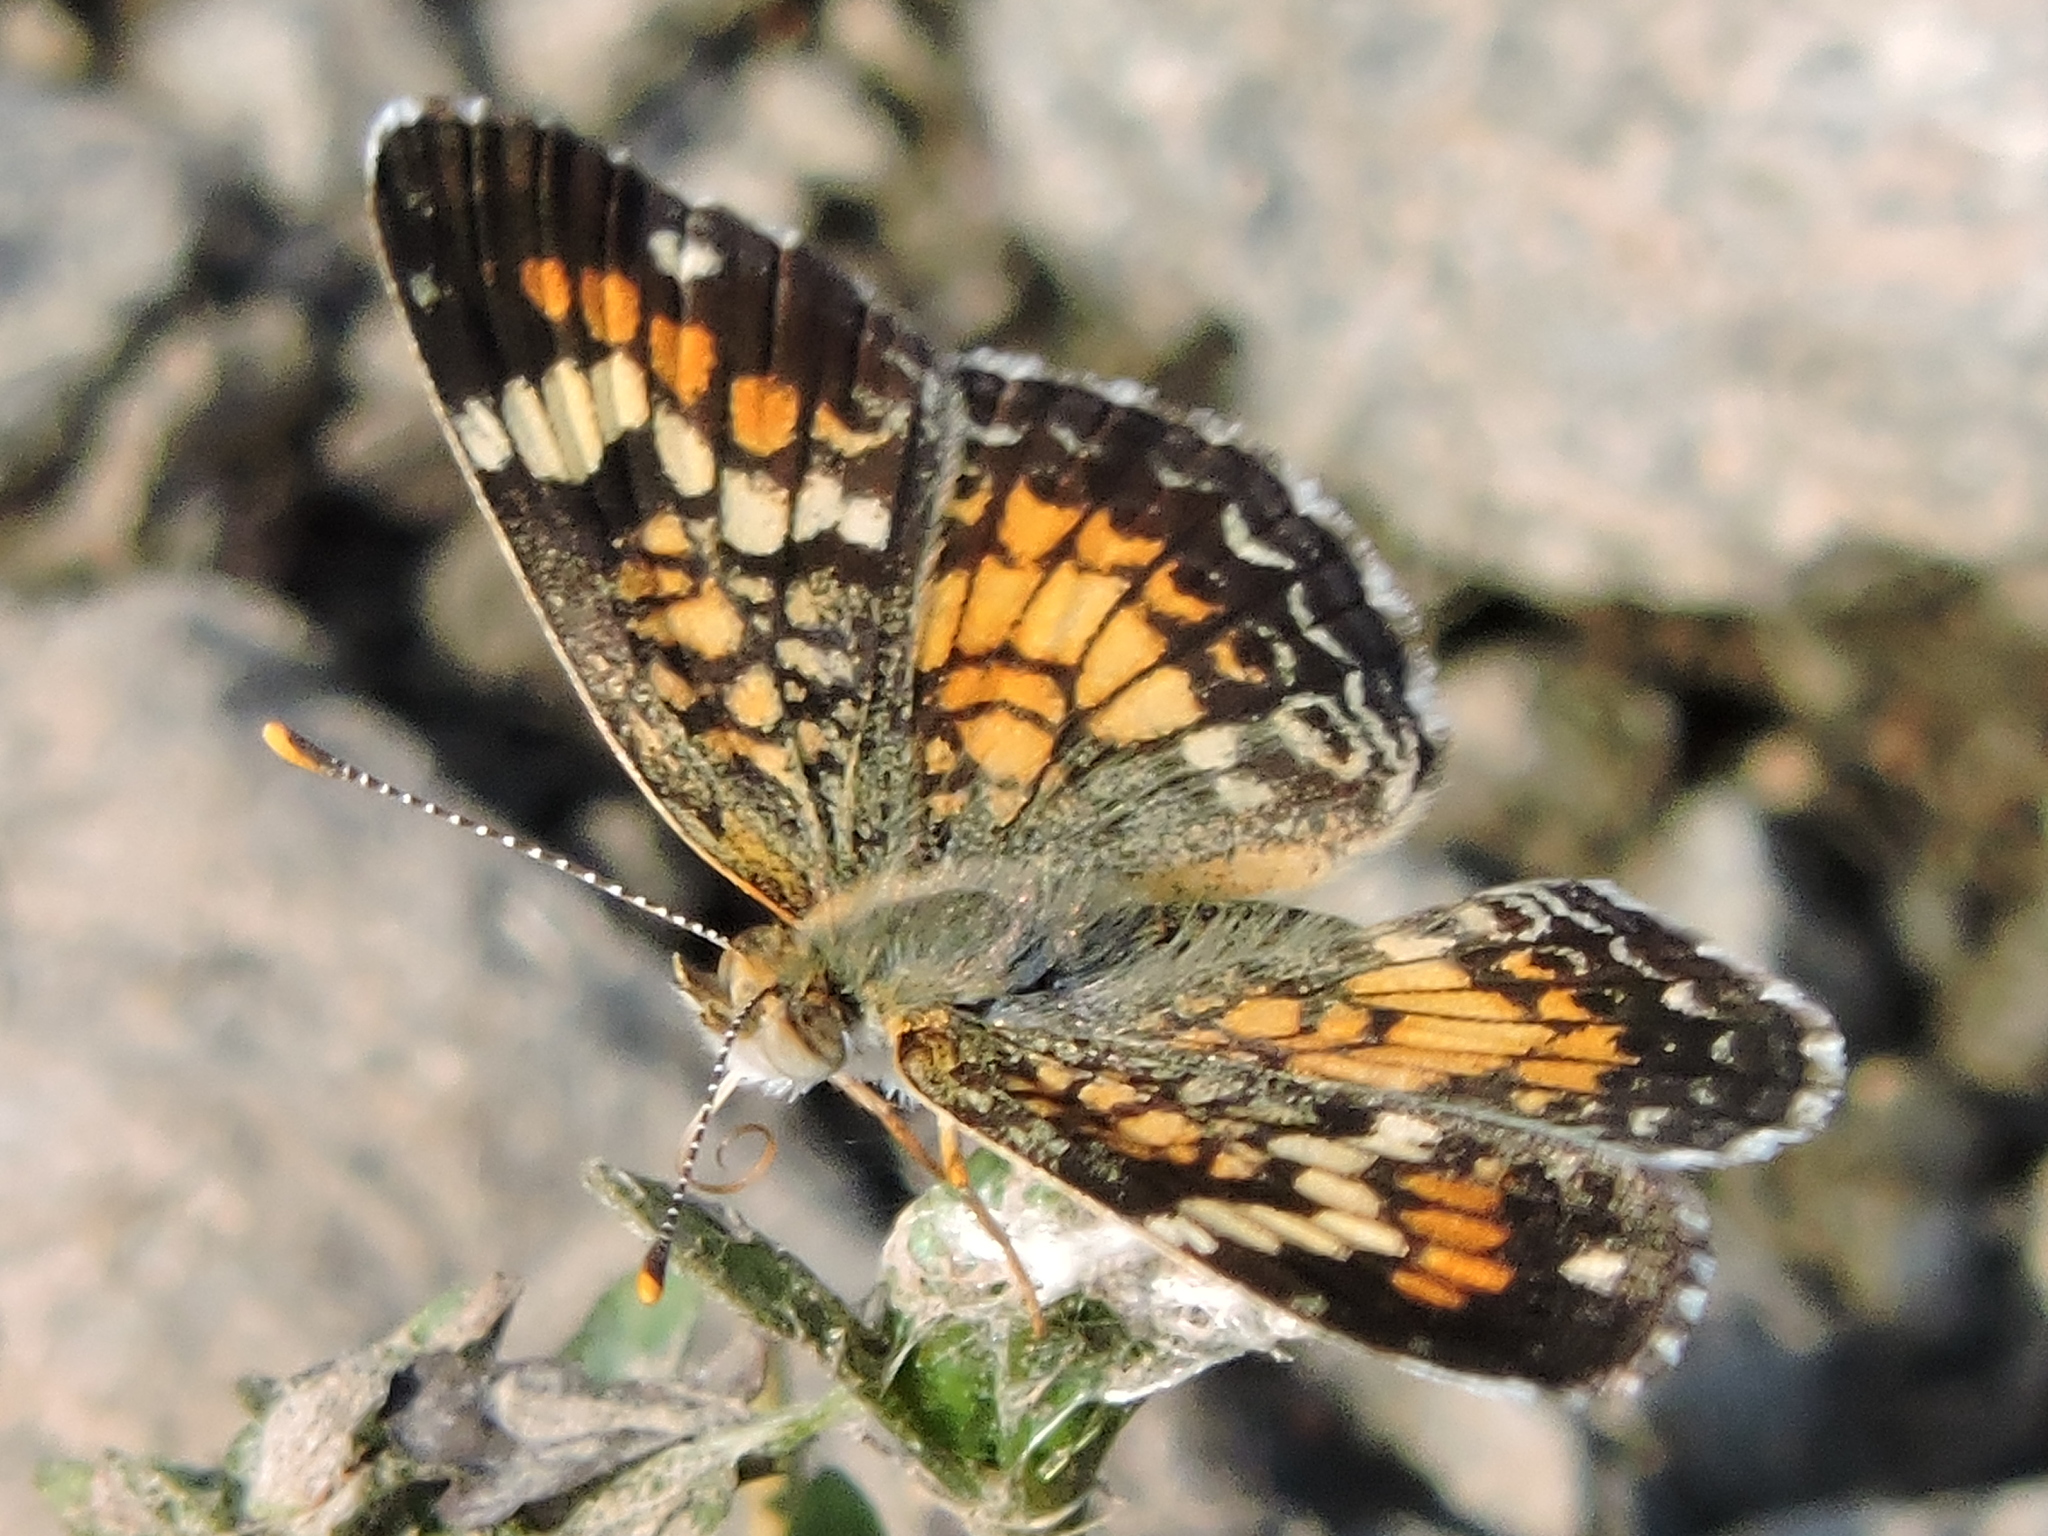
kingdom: Animalia
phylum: Arthropoda
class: Insecta
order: Lepidoptera
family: Nymphalidae
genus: Phyciodes
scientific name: Phyciodes phaon
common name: Phaon crescent
